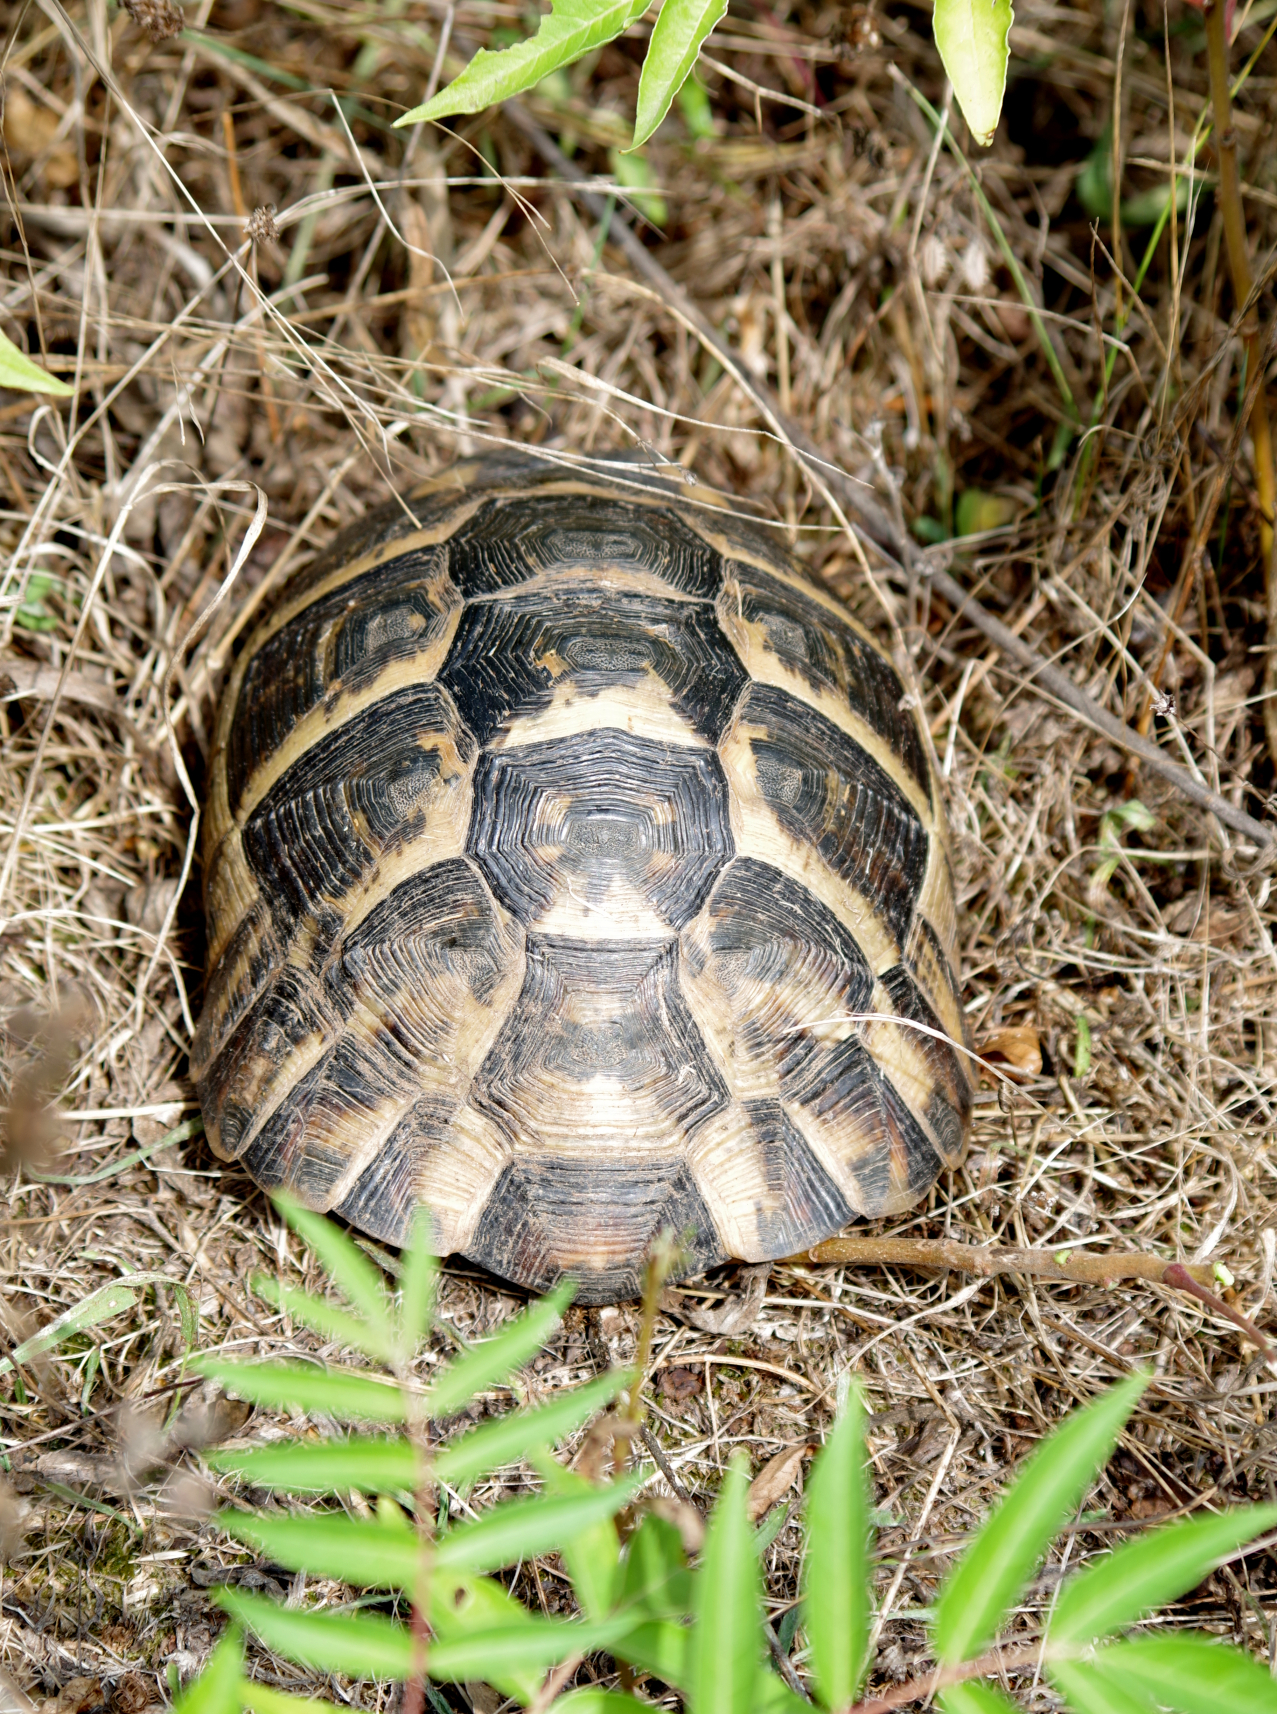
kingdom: Animalia
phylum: Chordata
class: Testudines
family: Testudinidae
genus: Testudo
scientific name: Testudo graeca
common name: Common tortoise
